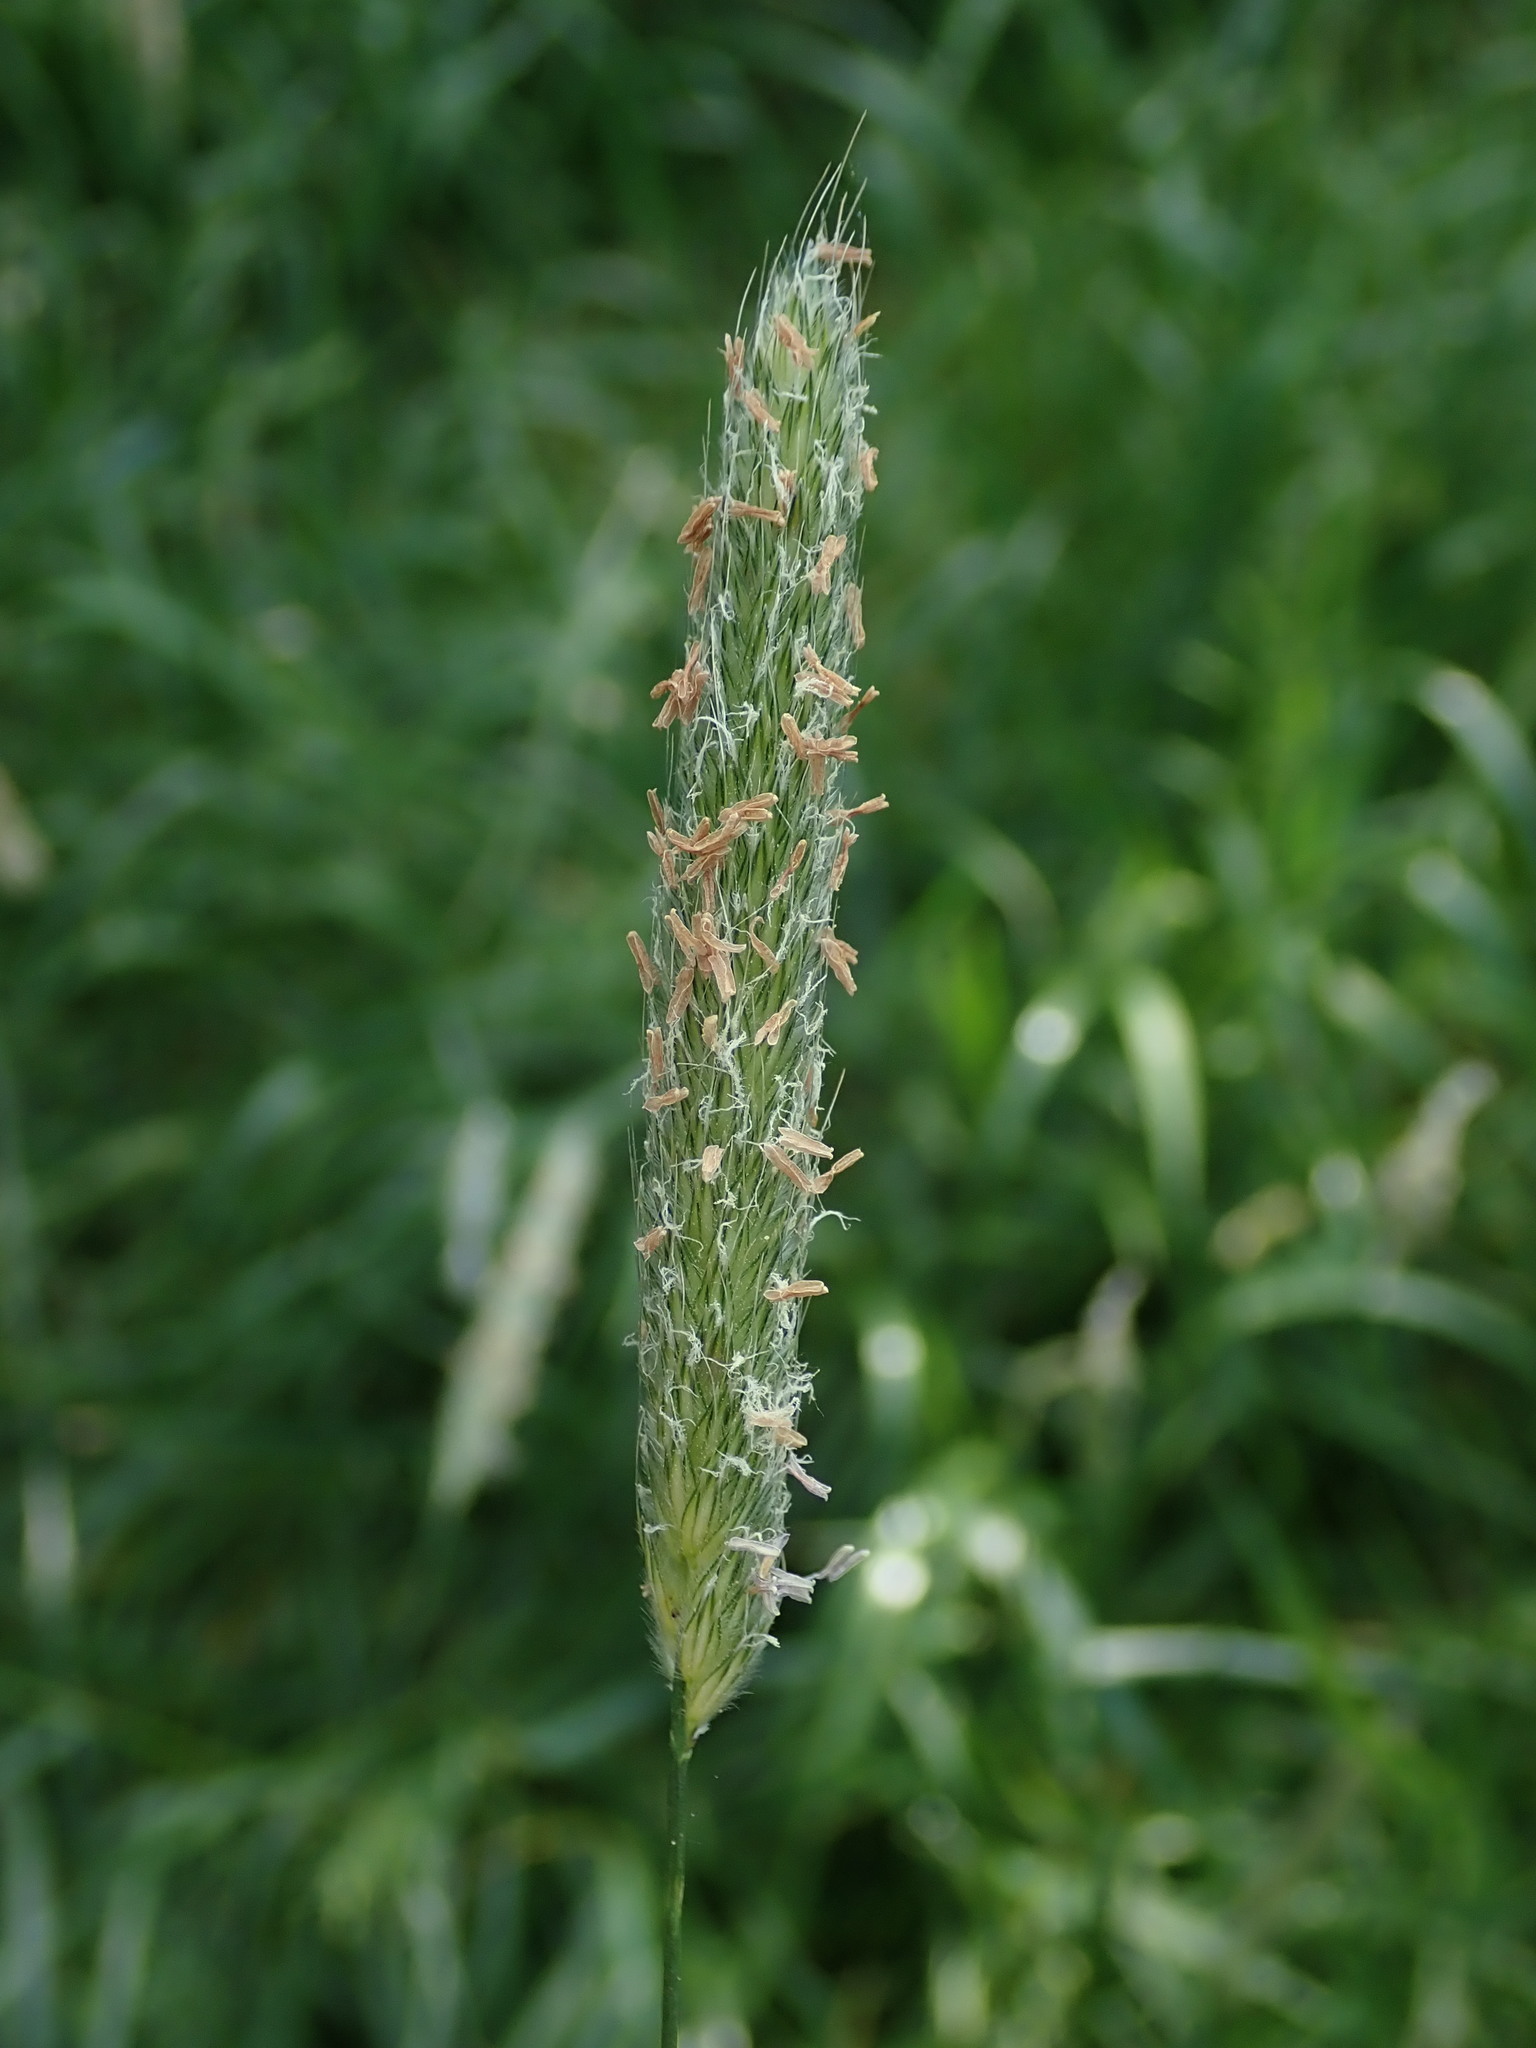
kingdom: Plantae
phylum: Tracheophyta
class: Liliopsida
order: Poales
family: Poaceae
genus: Alopecurus
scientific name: Alopecurus pratensis
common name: Meadow foxtail
